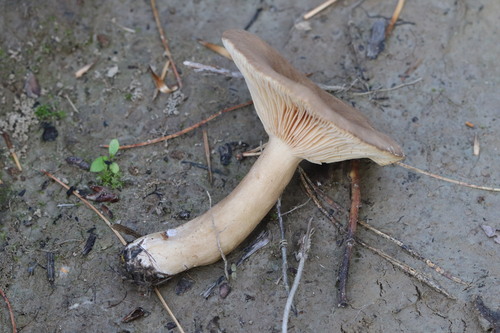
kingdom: Fungi
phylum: Basidiomycota
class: Agaricomycetes
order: Russulales
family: Russulaceae
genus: Lactarius
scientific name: Lactarius fuliginosus
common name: Sooty milkcap
